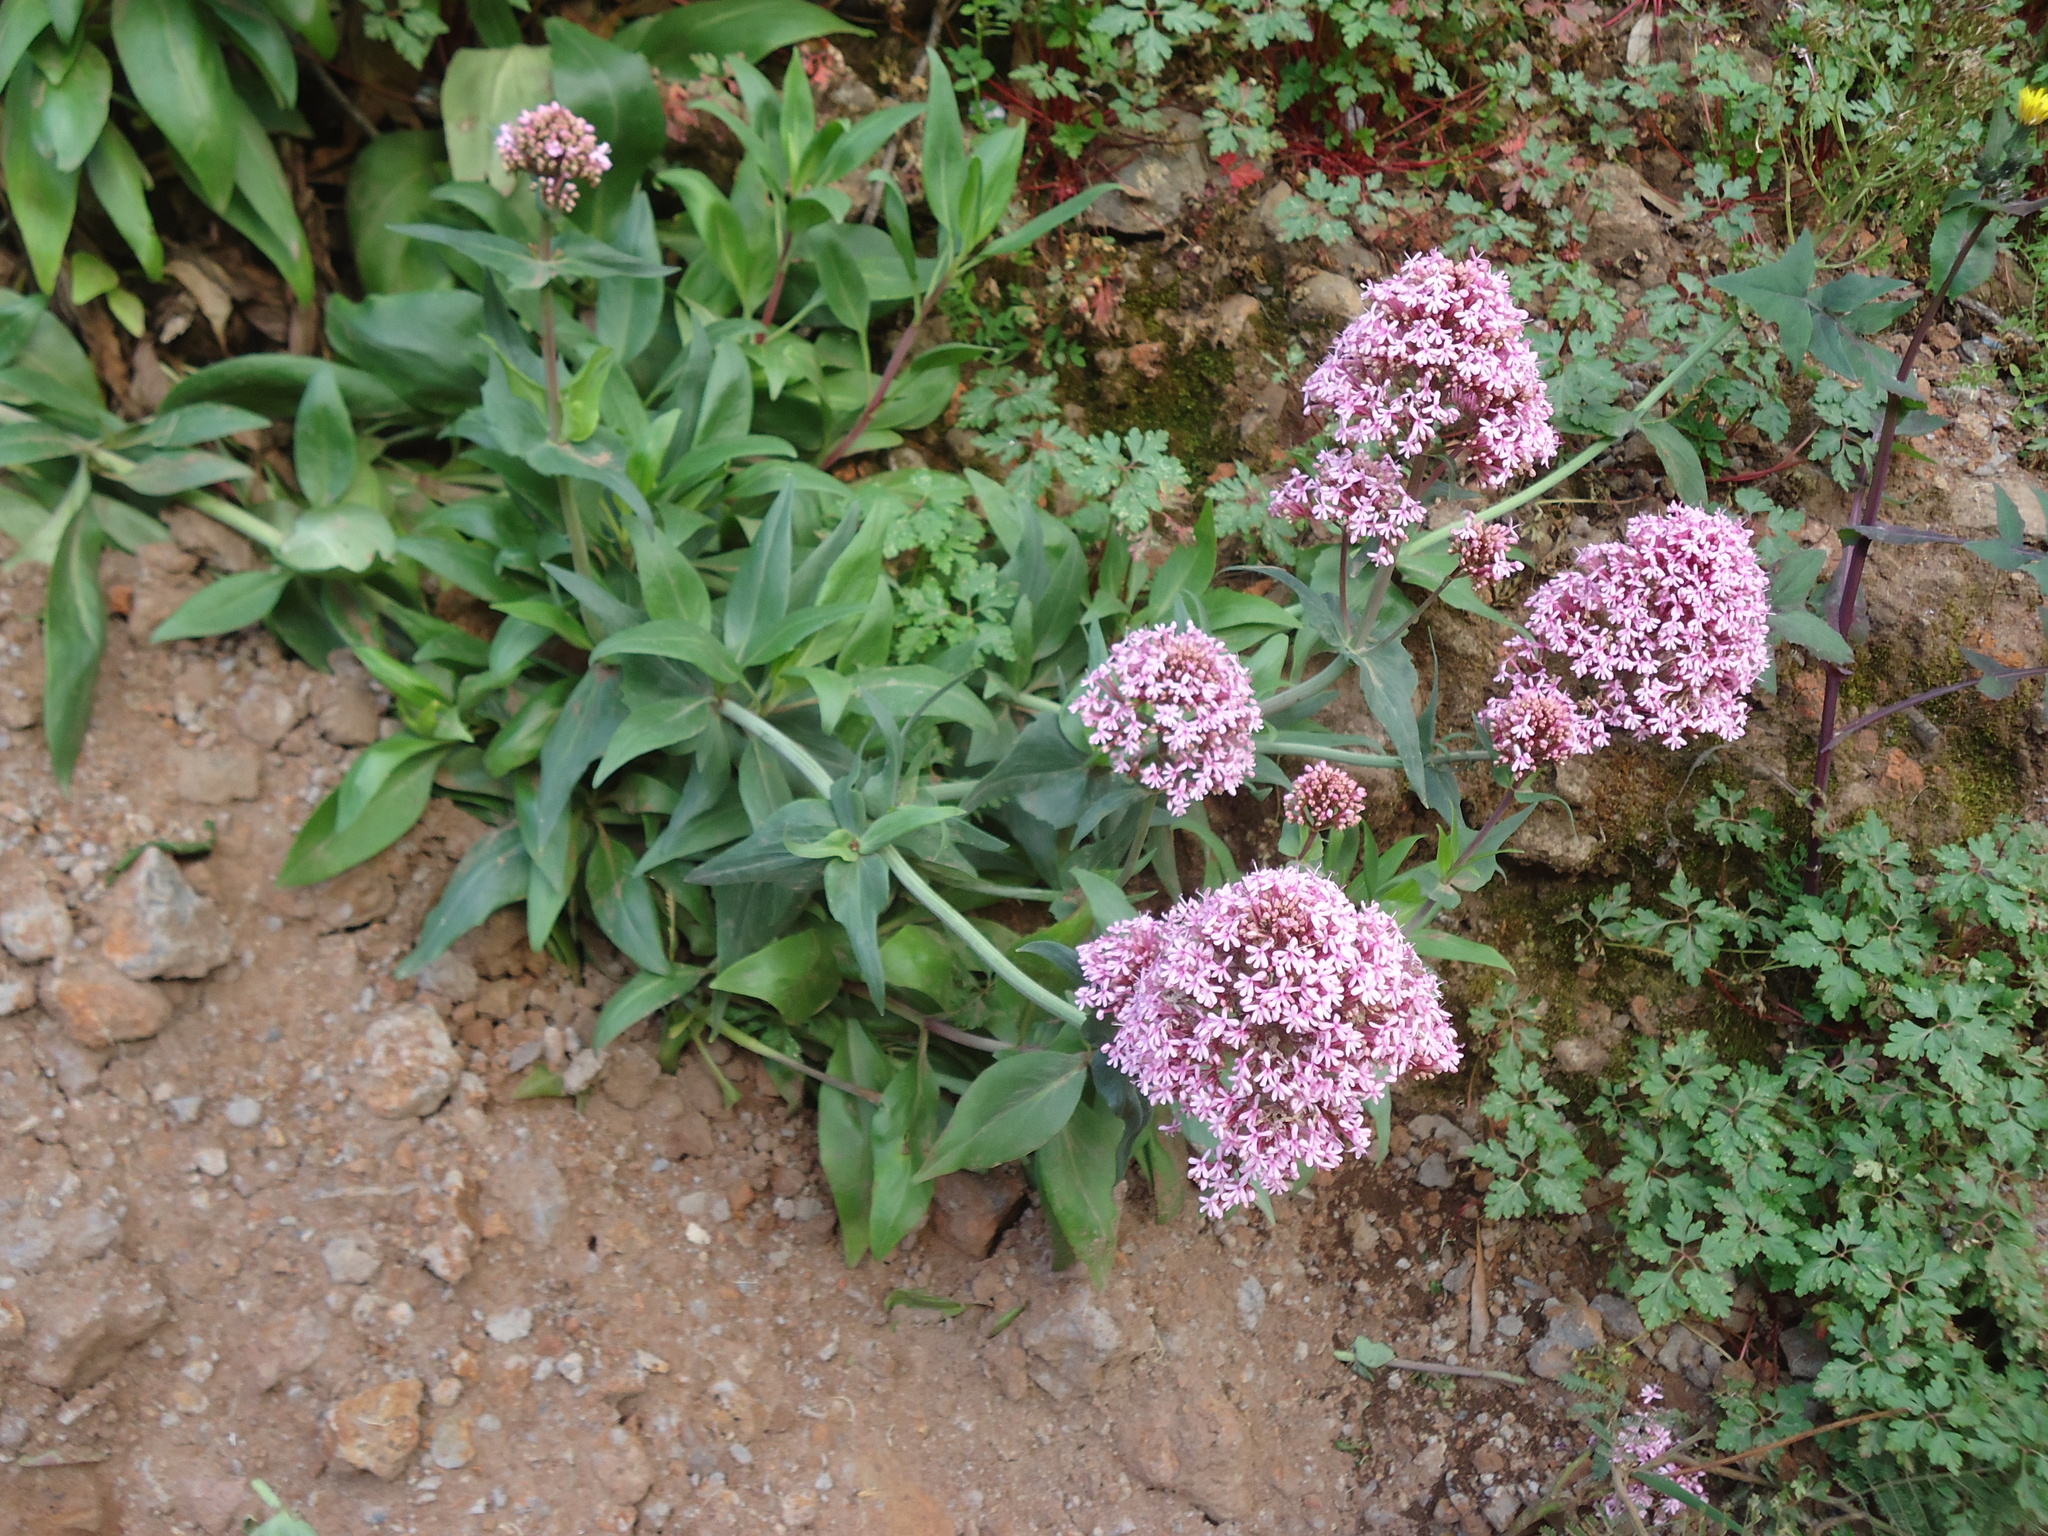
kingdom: Plantae
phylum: Tracheophyta
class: Magnoliopsida
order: Dipsacales
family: Caprifoliaceae
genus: Centranthus
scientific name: Centranthus ruber
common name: Red valerian
